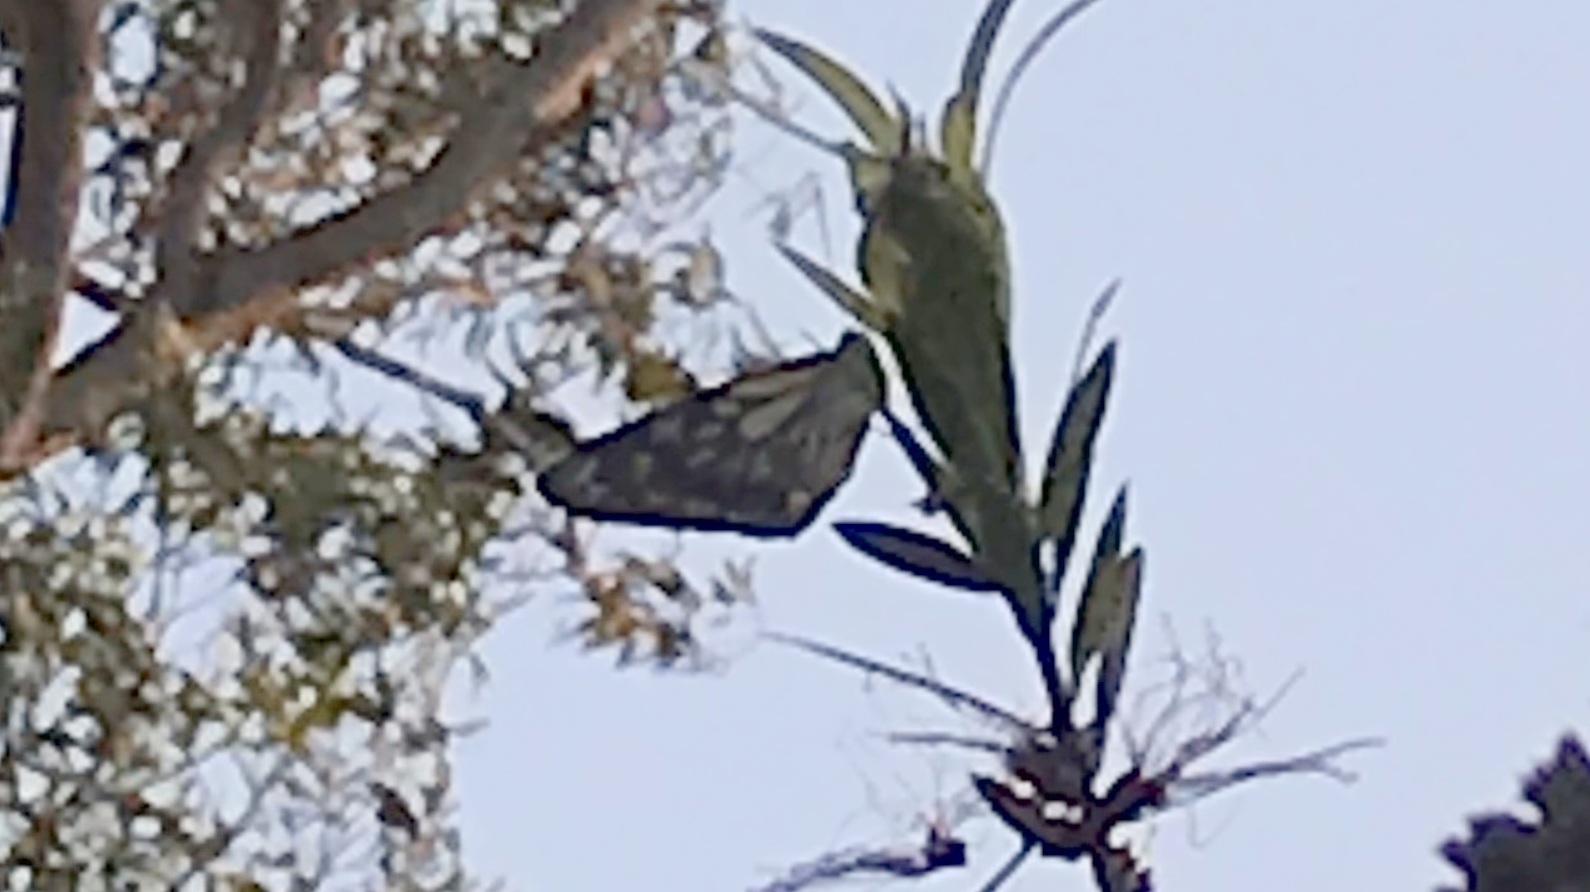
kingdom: Animalia
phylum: Arthropoda
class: Insecta
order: Lepidoptera
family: Pieridae
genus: Belenois
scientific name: Belenois java
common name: Caper white
